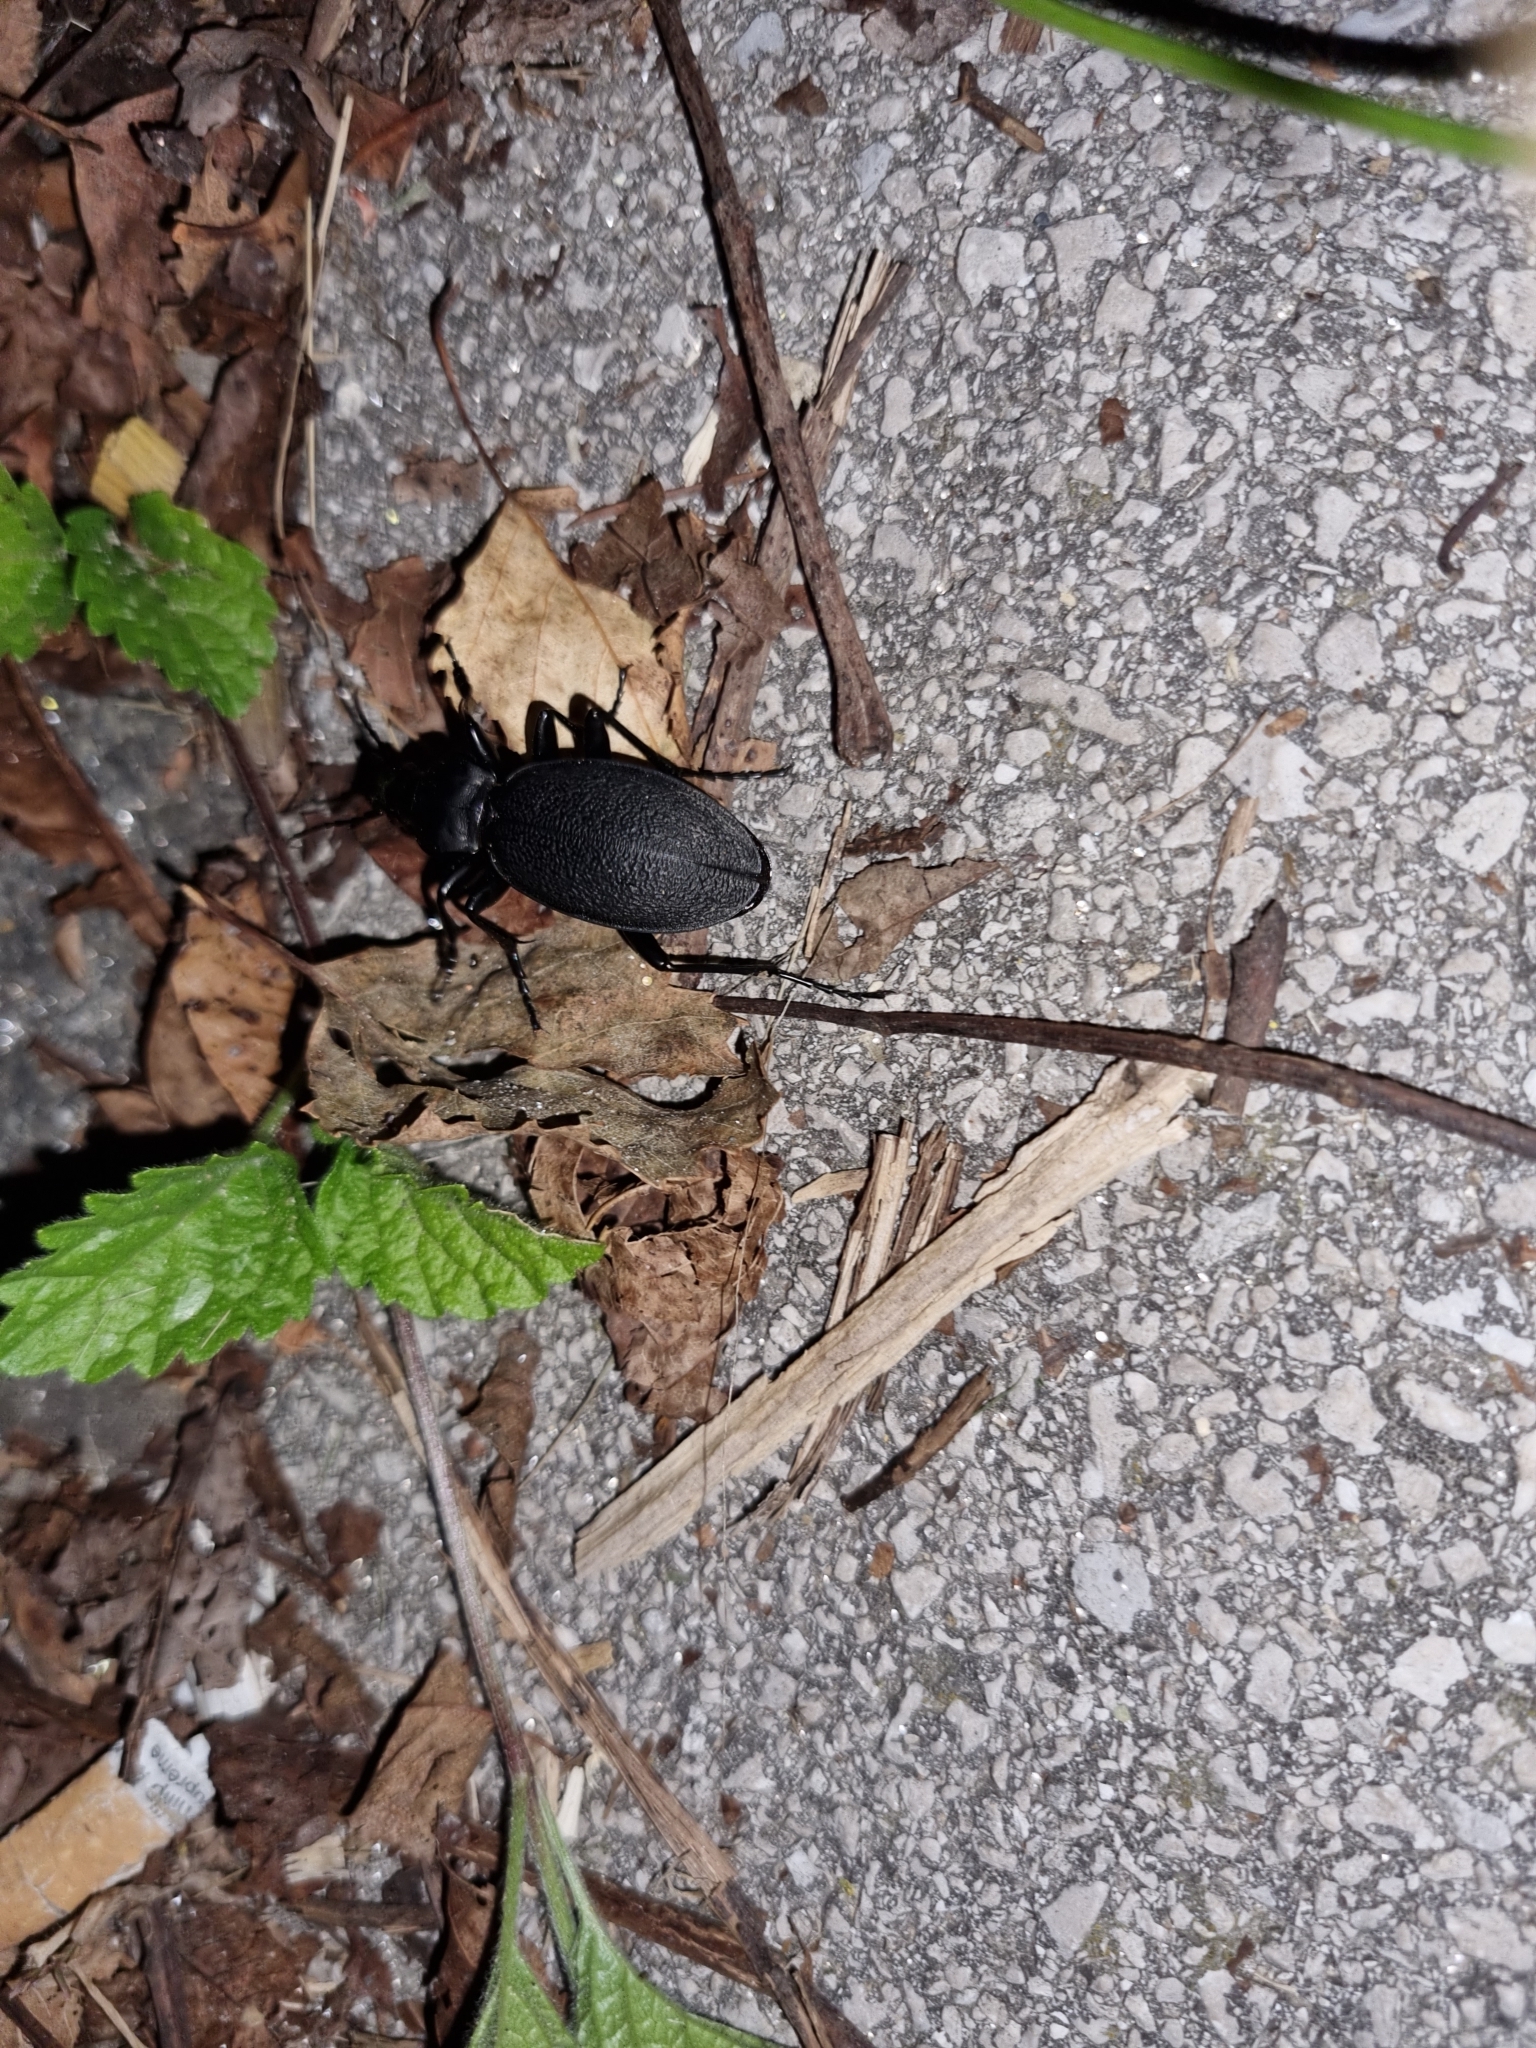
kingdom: Animalia
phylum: Arthropoda
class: Insecta
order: Coleoptera
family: Carabidae
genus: Carabus
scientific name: Carabus coriaceus
